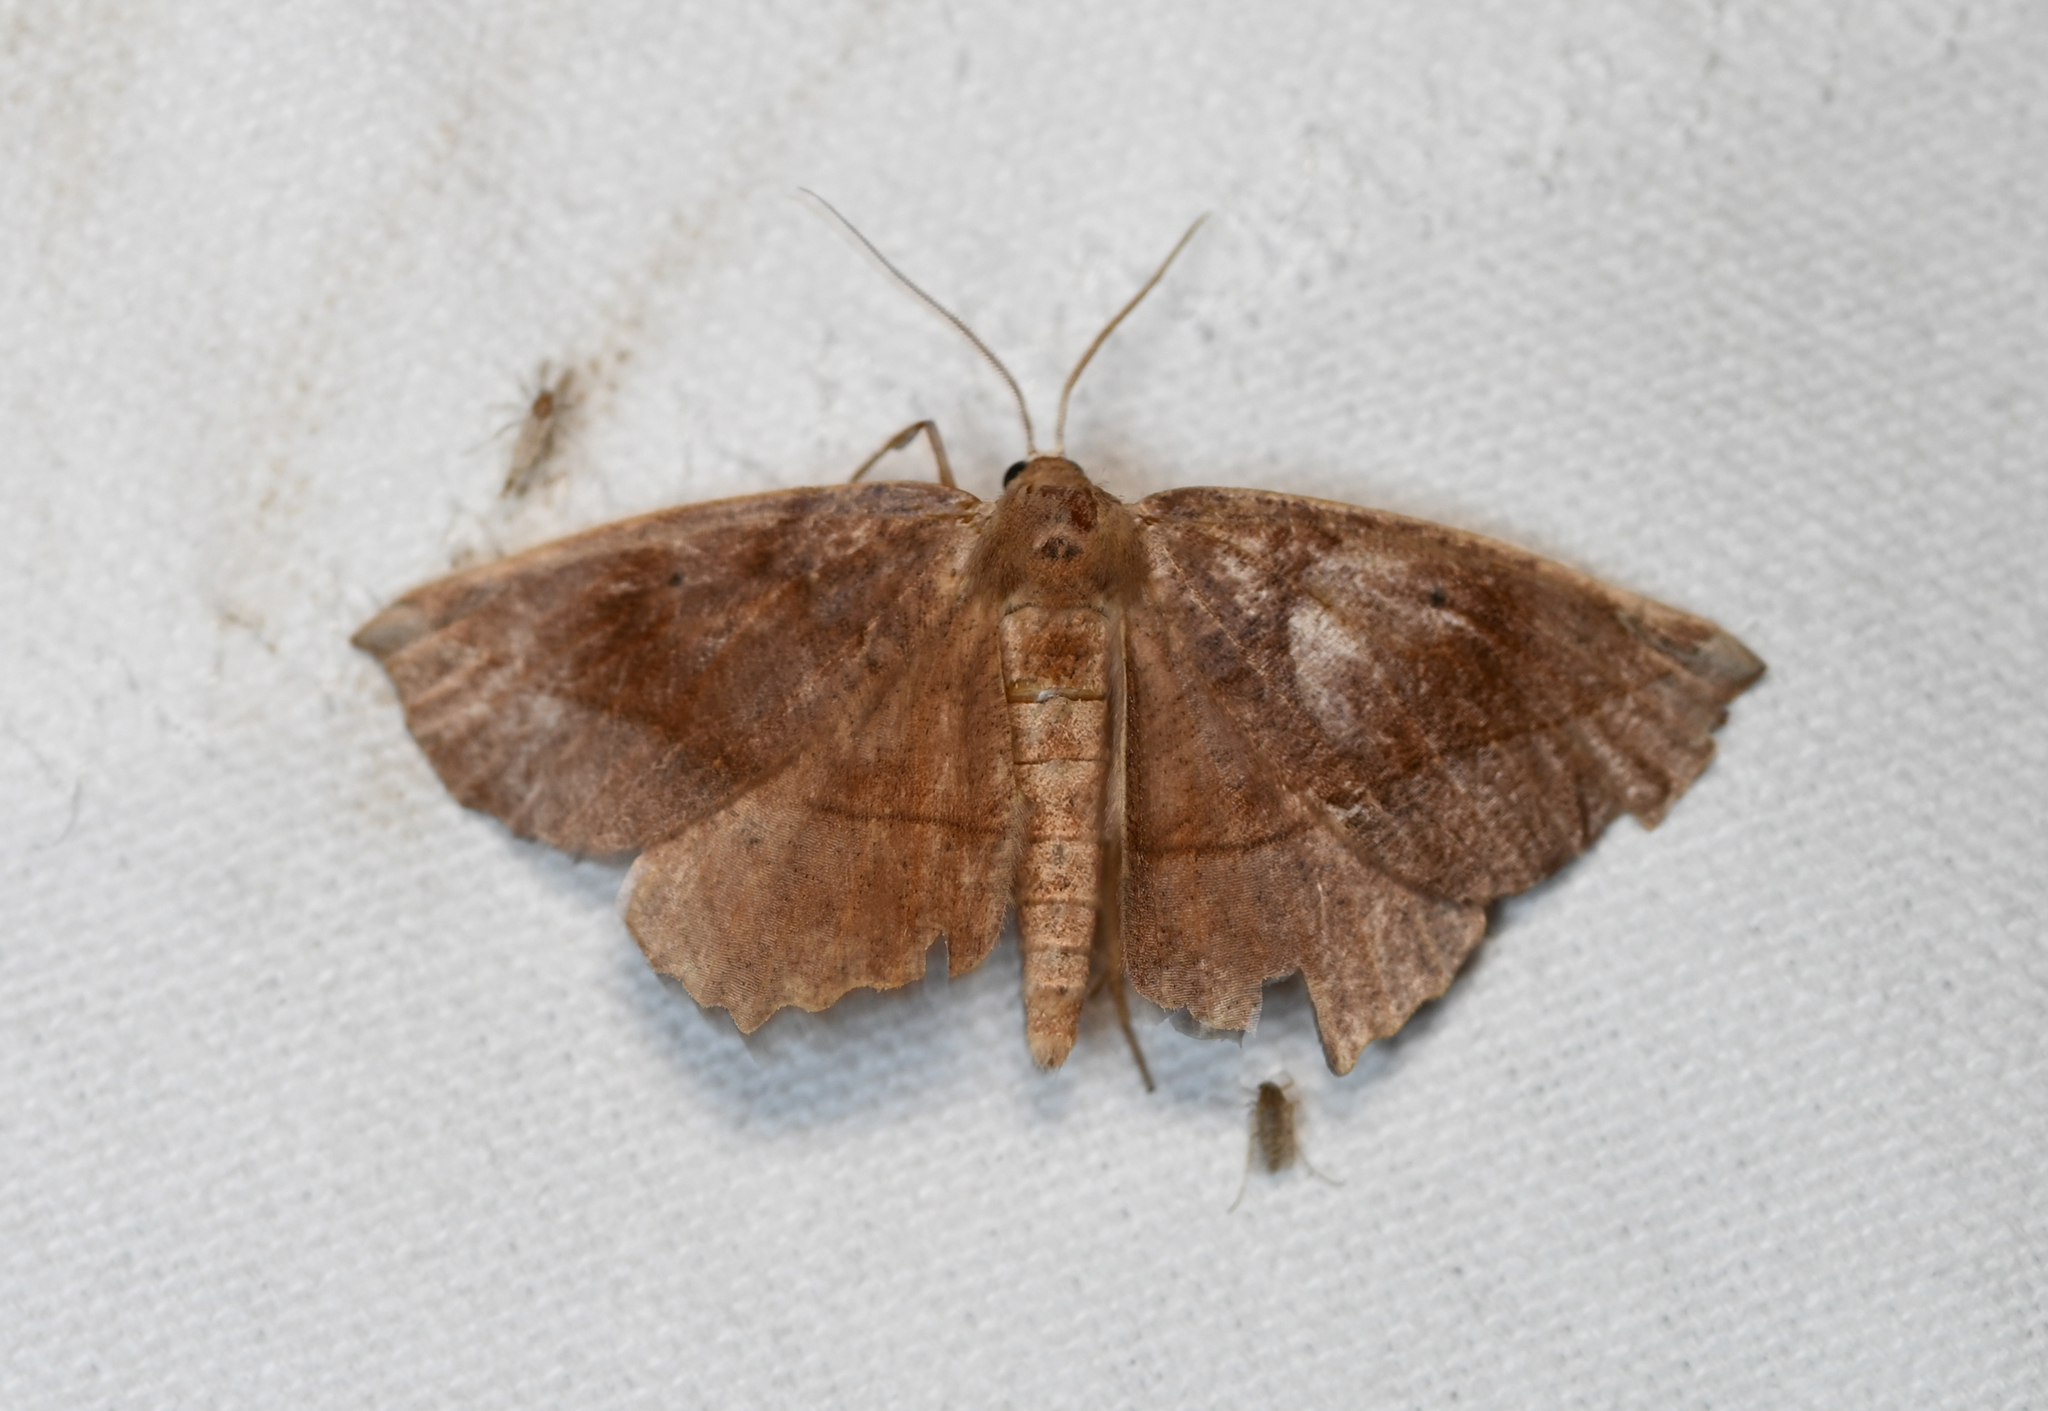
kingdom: Animalia
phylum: Arthropoda
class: Insecta
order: Lepidoptera
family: Geometridae
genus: Eutrapela
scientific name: Eutrapela clemataria
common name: Curved-toothed geometer
